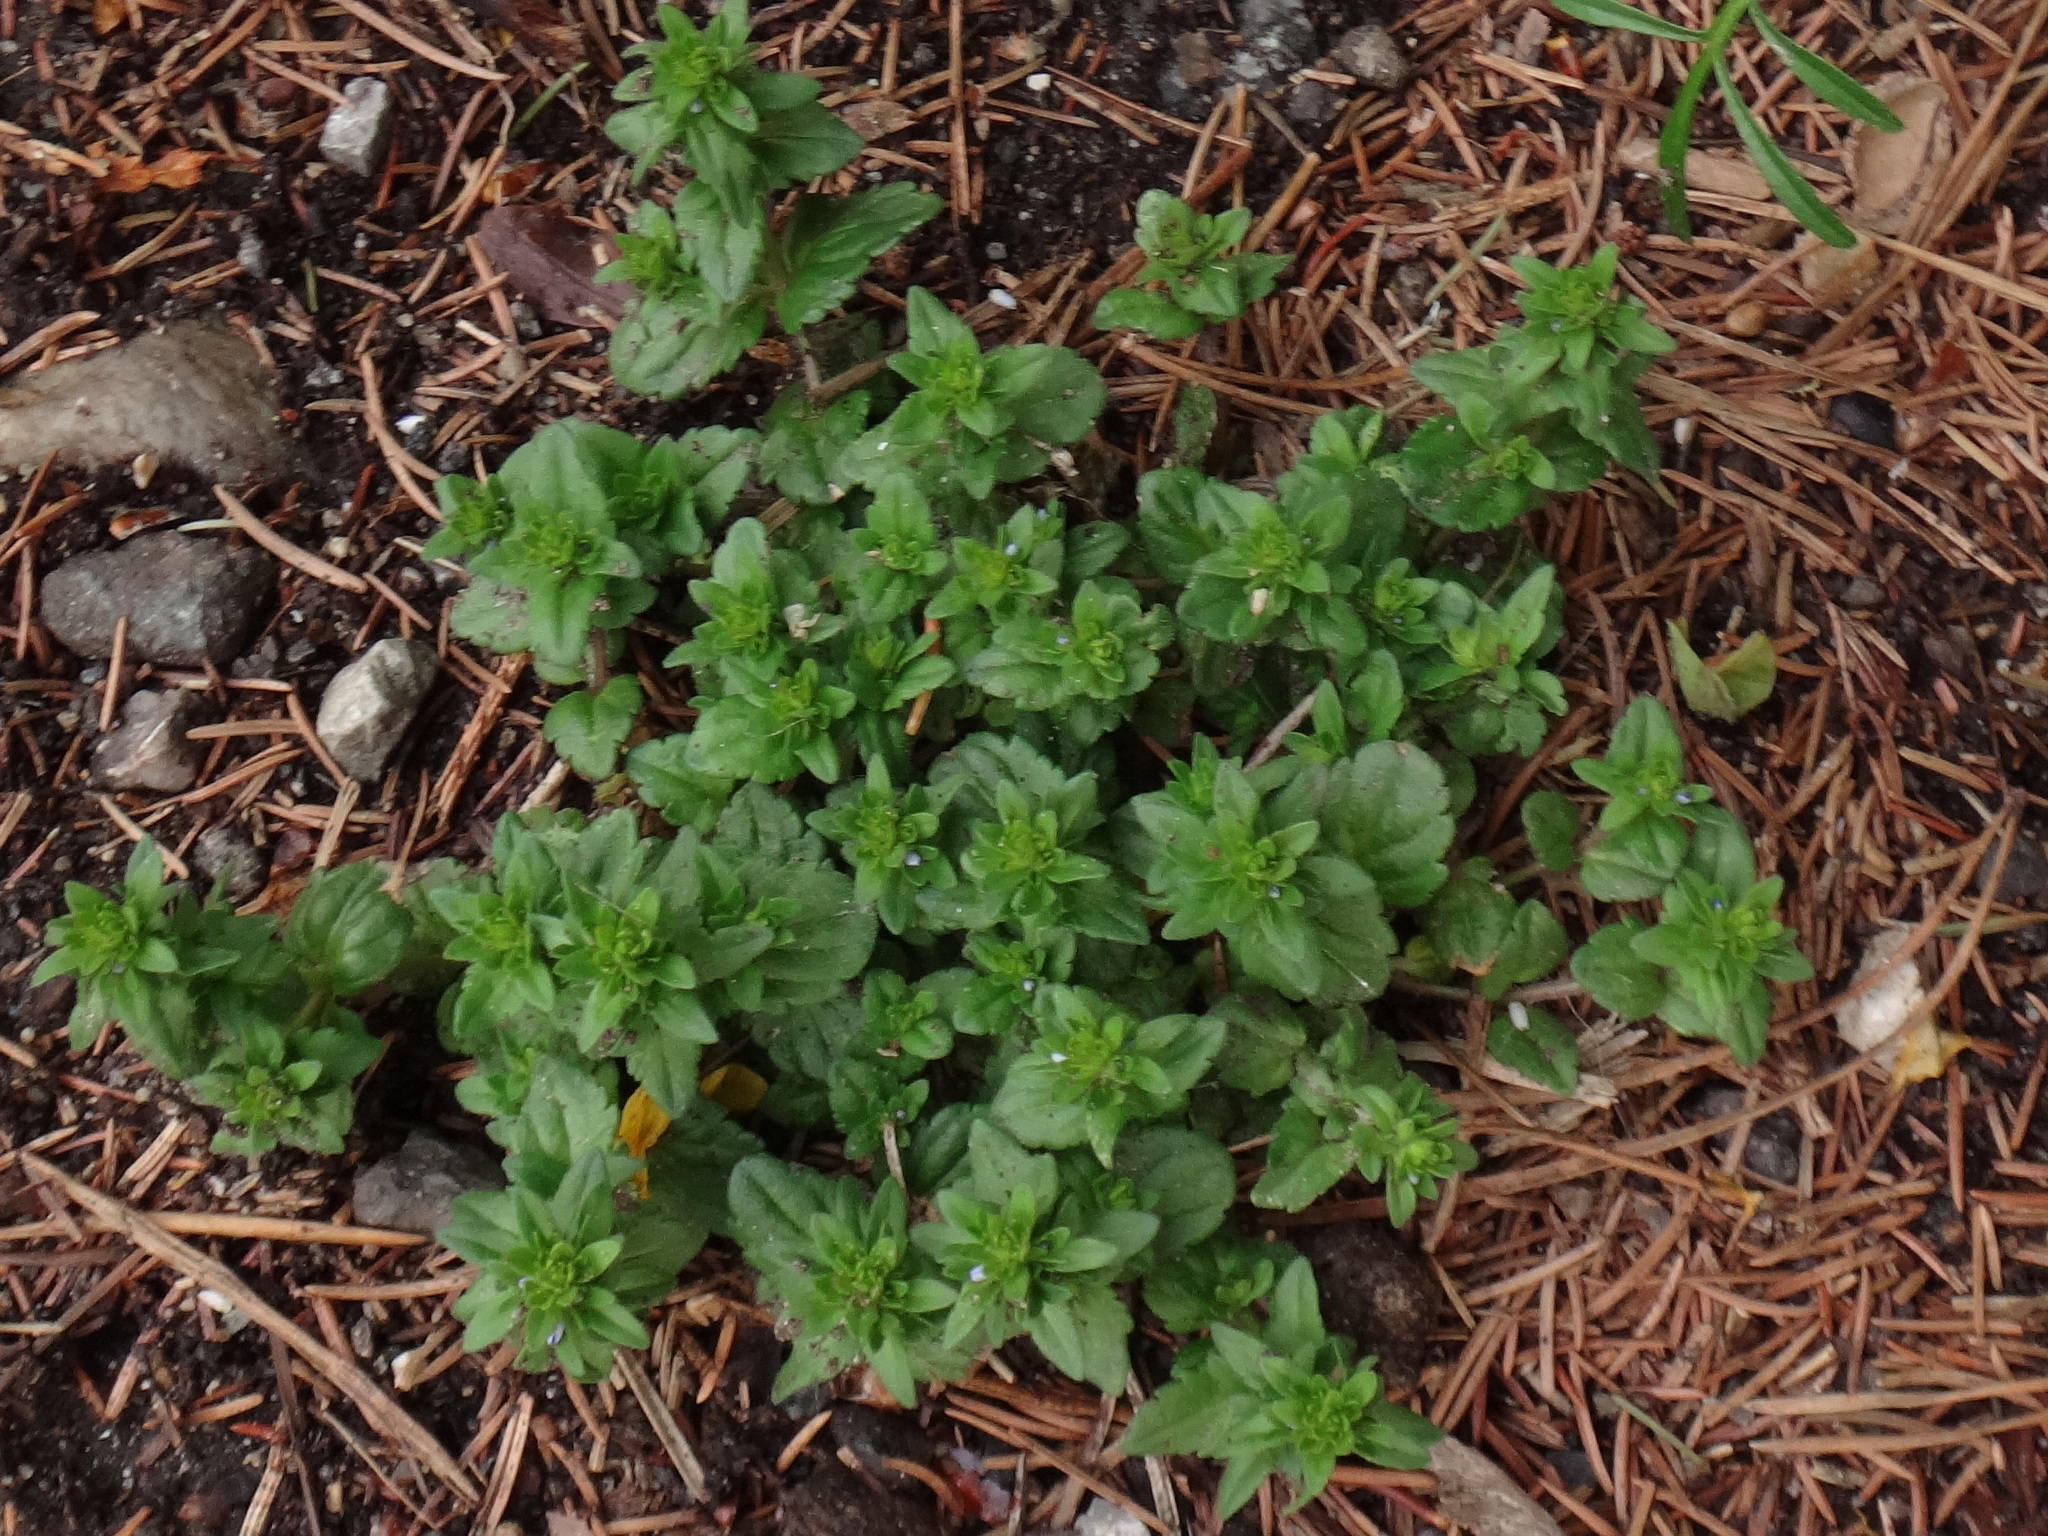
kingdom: Plantae
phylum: Tracheophyta
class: Magnoliopsida
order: Lamiales
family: Plantaginaceae
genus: Veronica
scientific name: Veronica arvensis
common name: Corn speedwell
